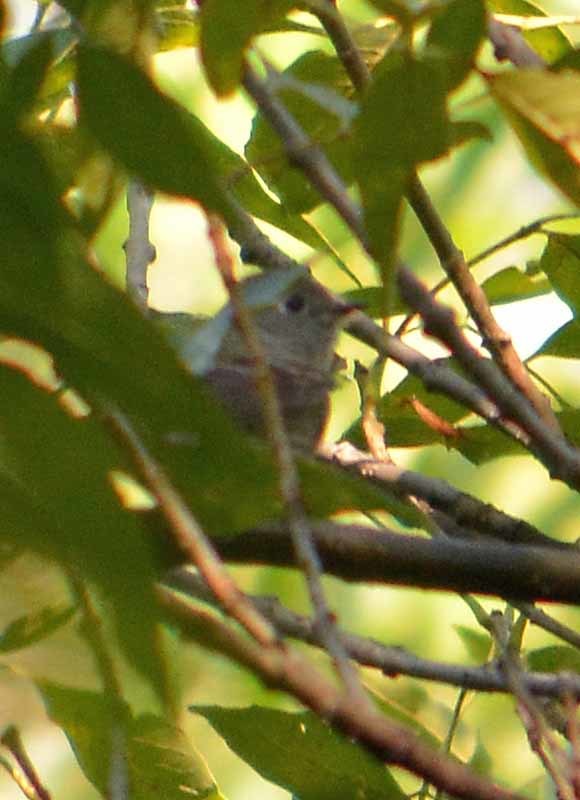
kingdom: Animalia
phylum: Chordata
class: Aves
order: Passeriformes
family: Regulidae
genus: Regulus
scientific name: Regulus calendula
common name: Ruby-crowned kinglet
